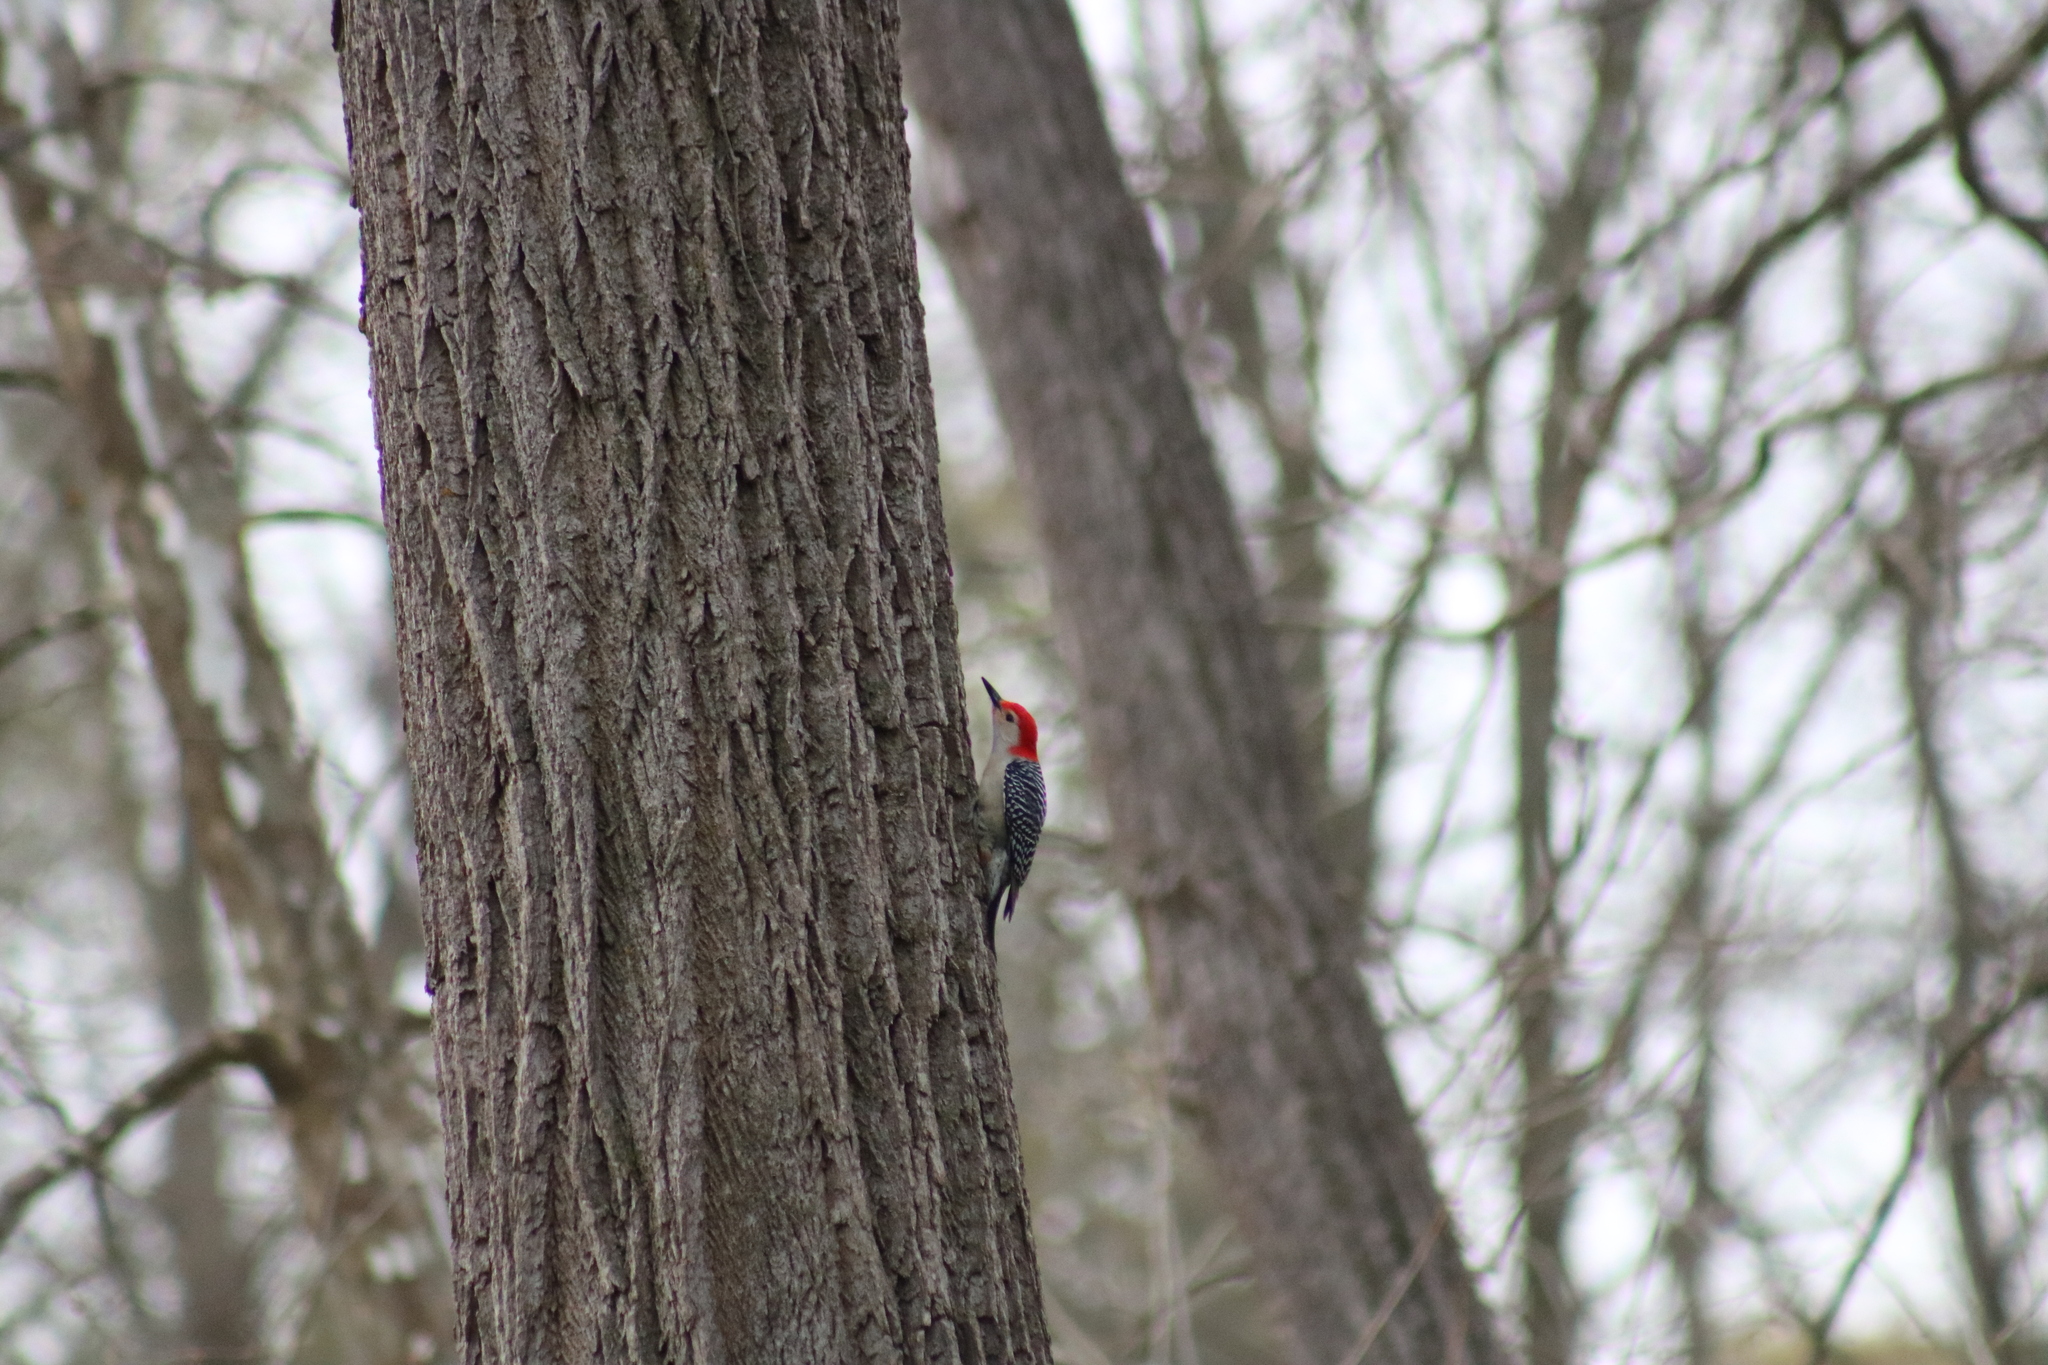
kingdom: Animalia
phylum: Chordata
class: Aves
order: Piciformes
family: Picidae
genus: Melanerpes
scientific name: Melanerpes carolinus
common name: Red-bellied woodpecker
